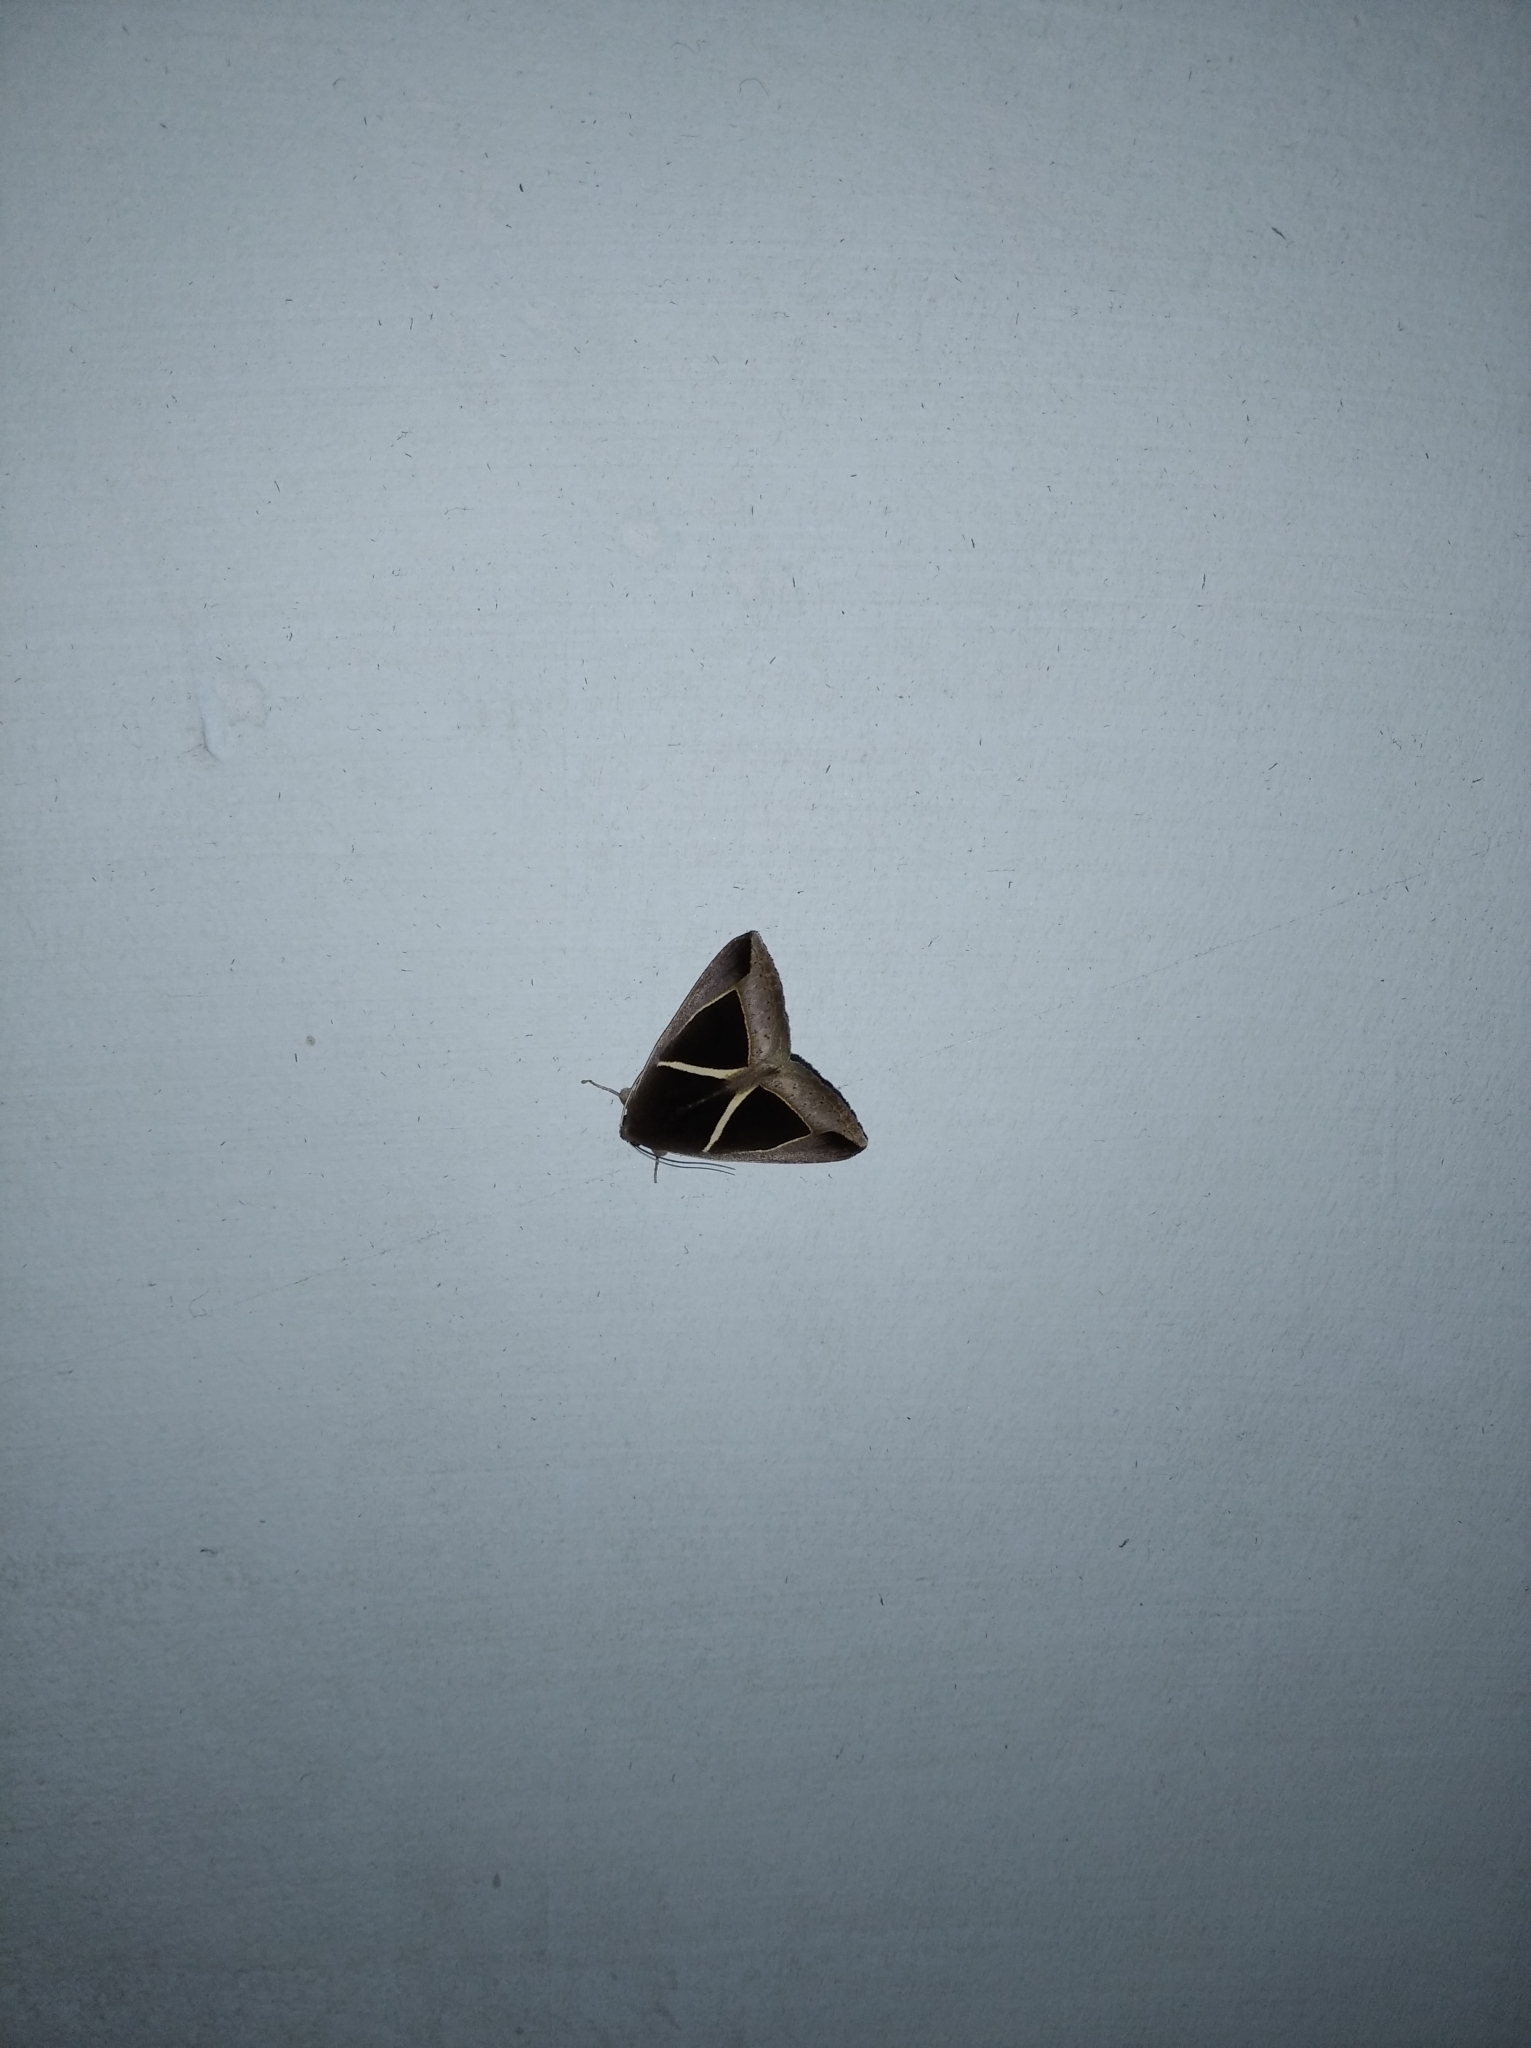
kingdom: Animalia
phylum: Arthropoda
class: Insecta
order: Lepidoptera
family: Erebidae
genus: Chalciope
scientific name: Chalciope mygdon
